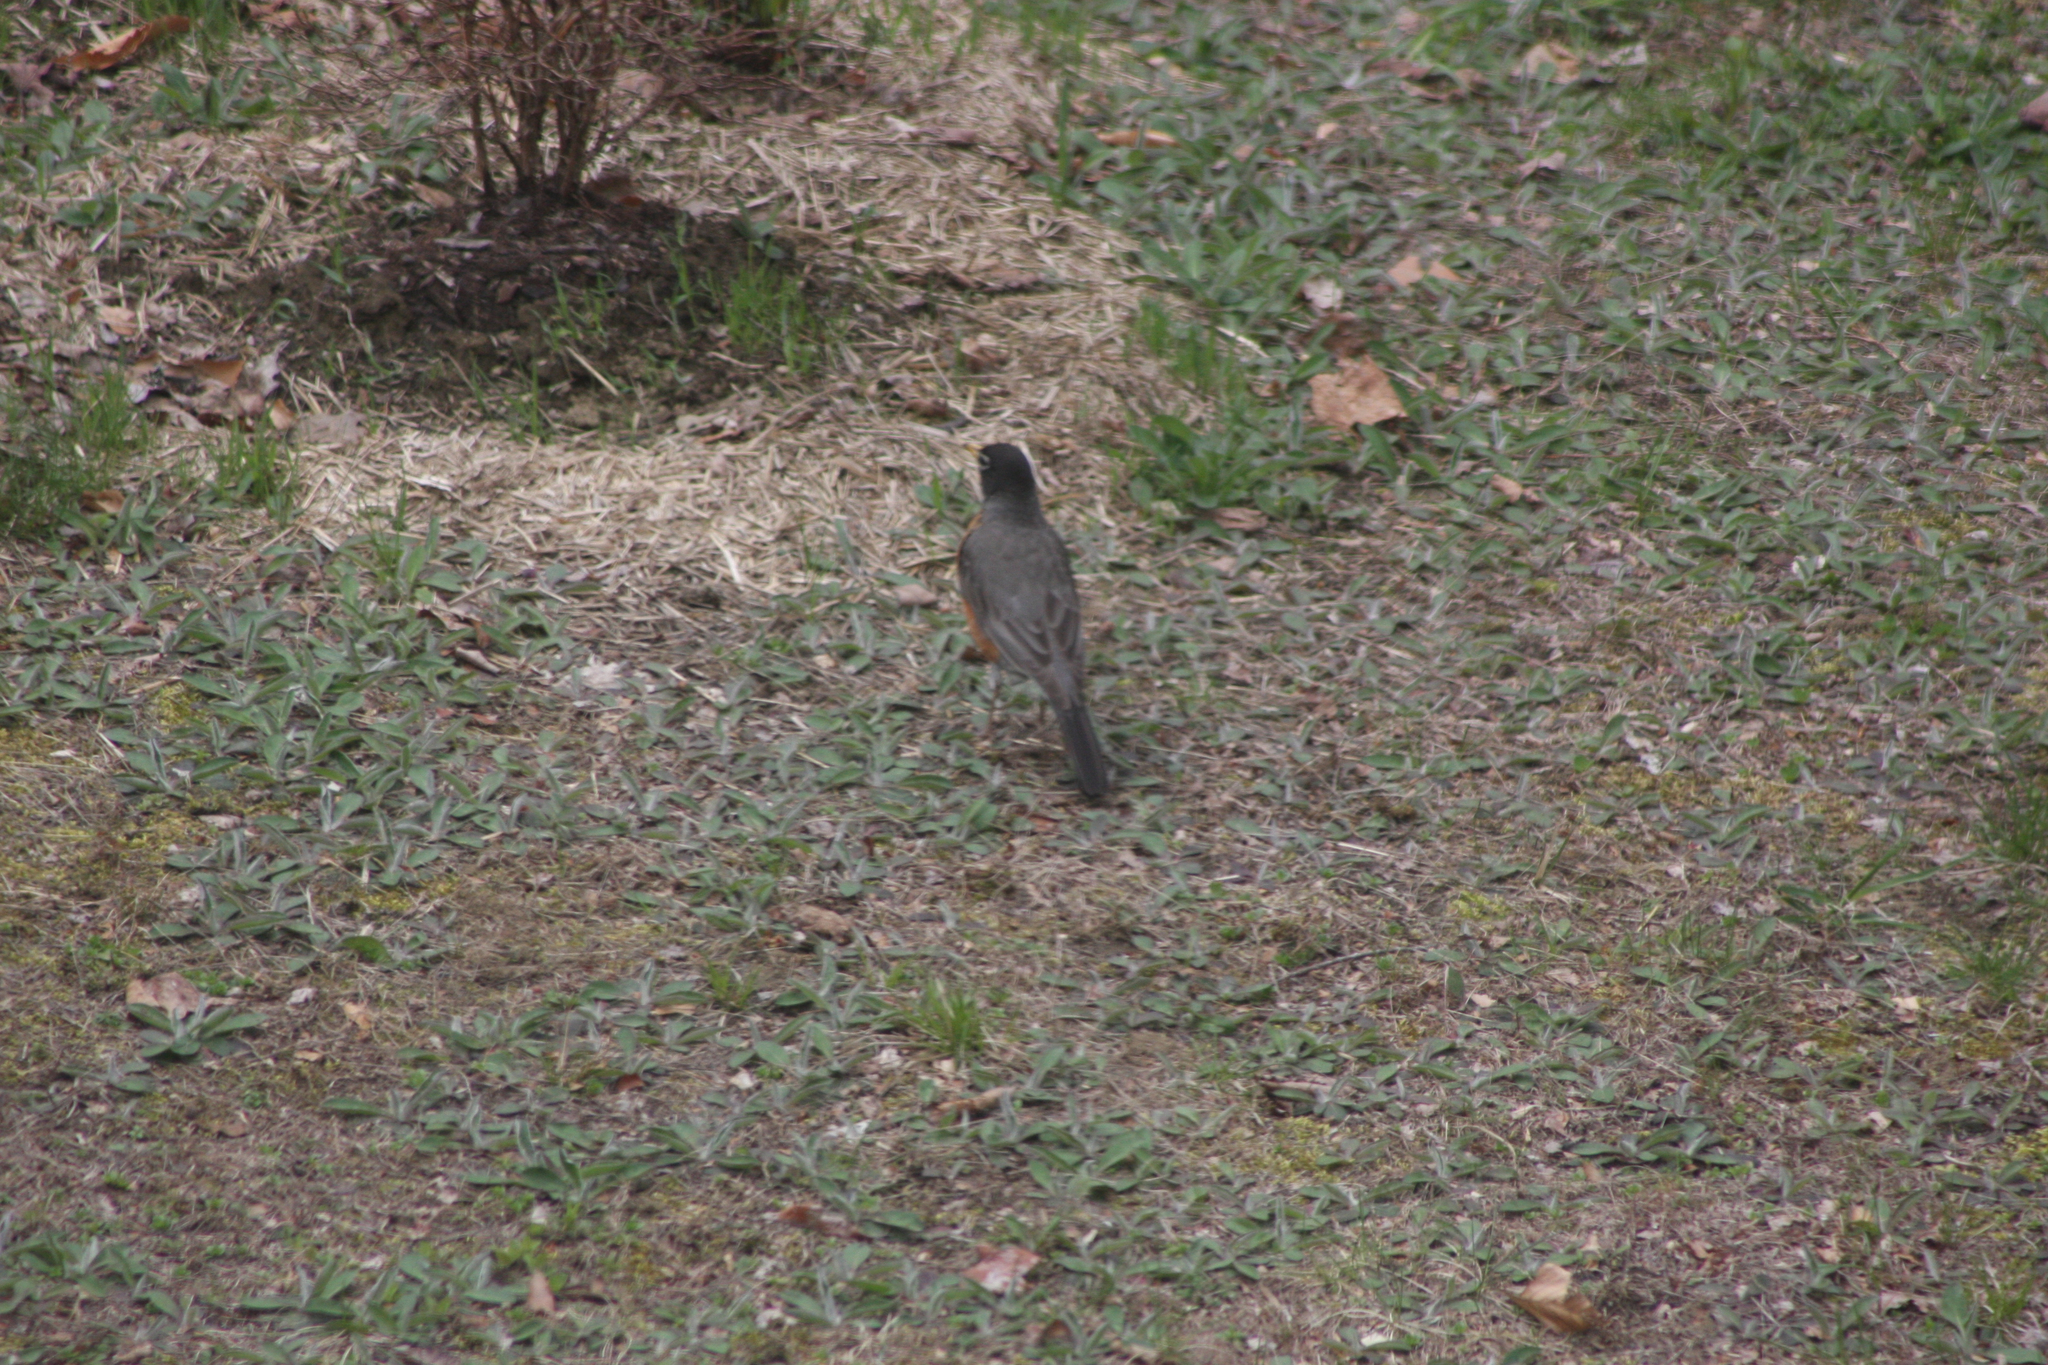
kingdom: Animalia
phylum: Chordata
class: Aves
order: Passeriformes
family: Turdidae
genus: Turdus
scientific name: Turdus migratorius
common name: American robin
